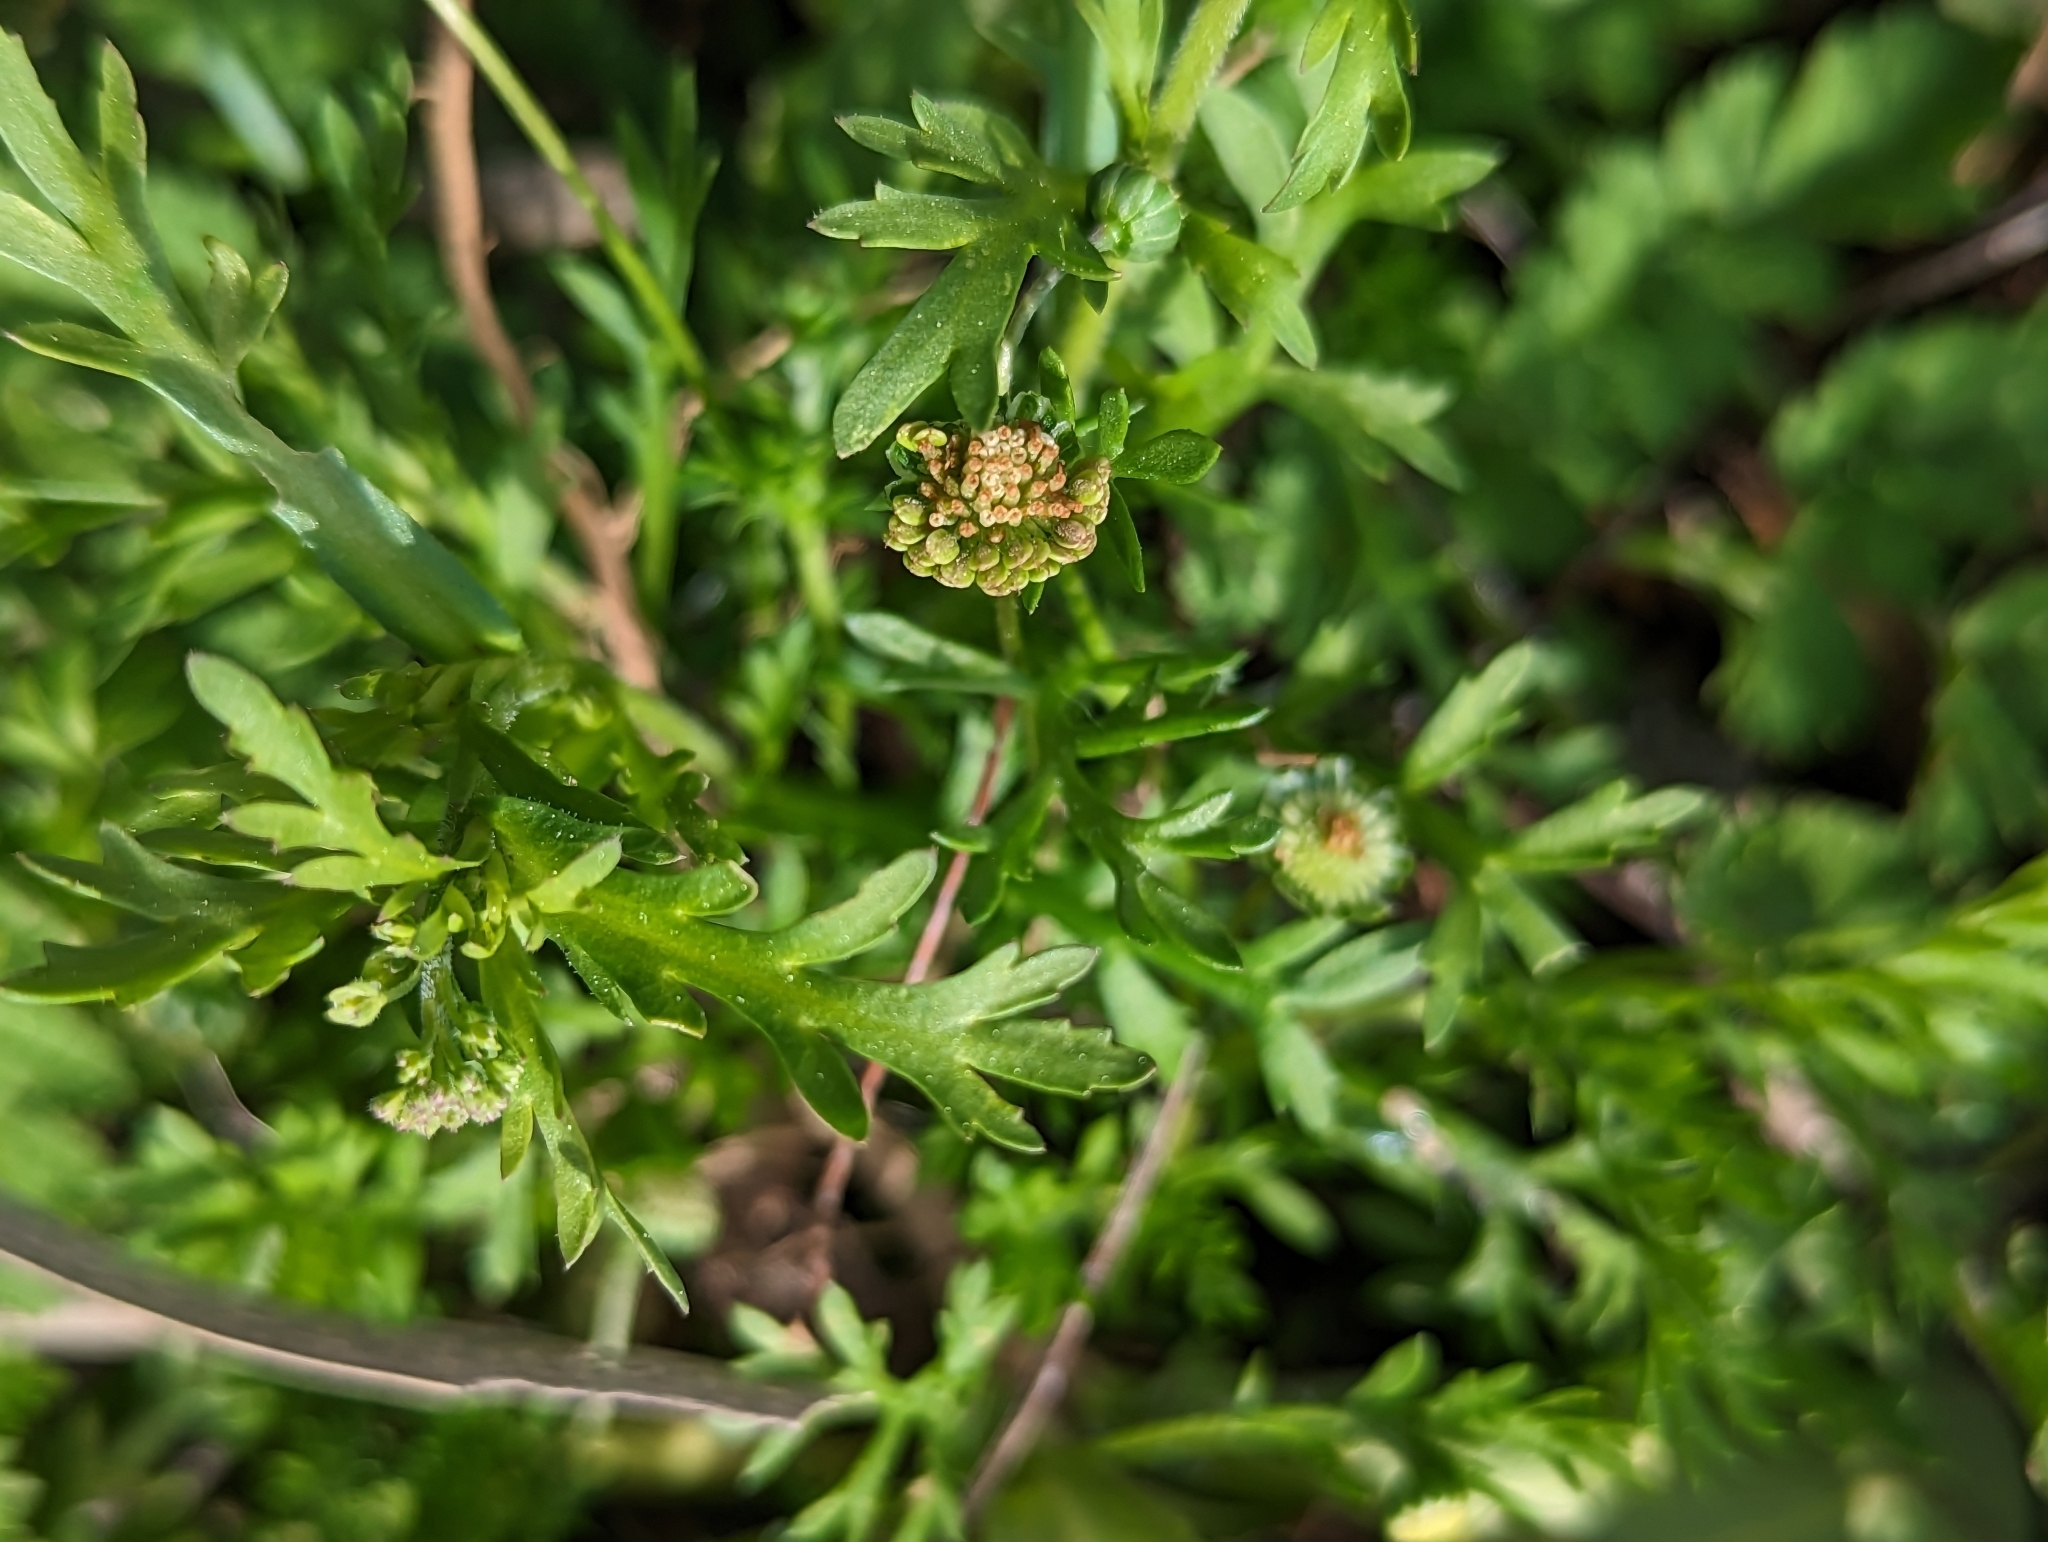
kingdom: Plantae
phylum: Tracheophyta
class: Magnoliopsida
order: Asterales
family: Asteraceae
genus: Cotula
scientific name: Cotula australis
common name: Australian waterbuttons
